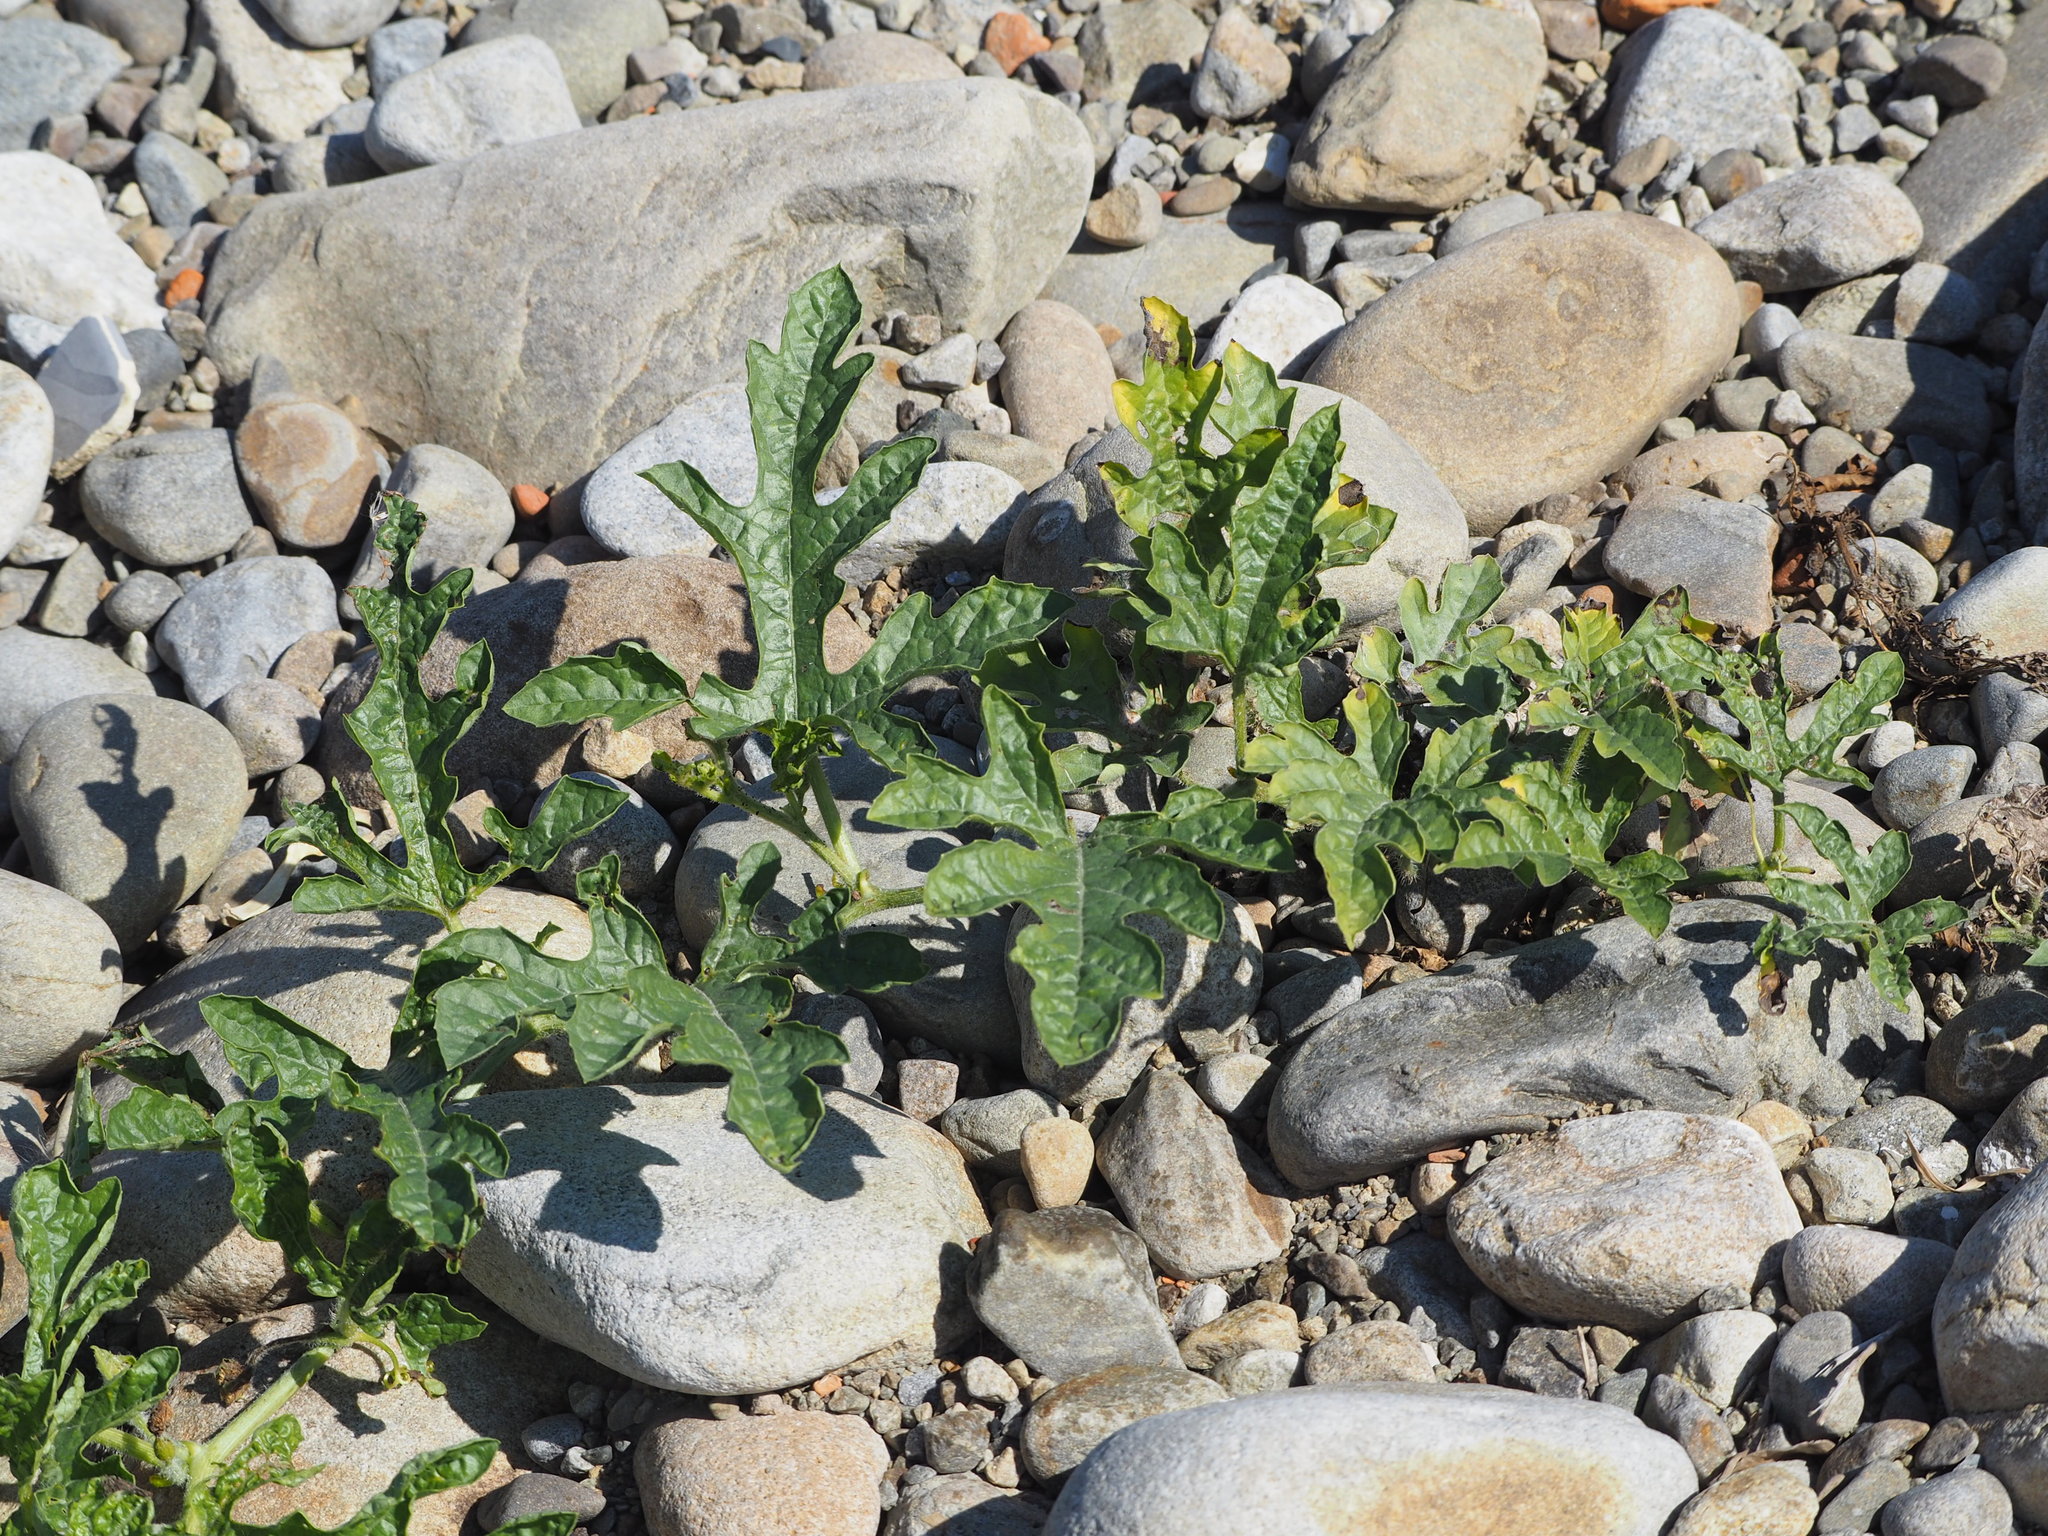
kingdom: Plantae
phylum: Tracheophyta
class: Magnoliopsida
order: Cucurbitales
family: Cucurbitaceae
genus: Citrullus
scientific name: Citrullus lanatus
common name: Watermelon
